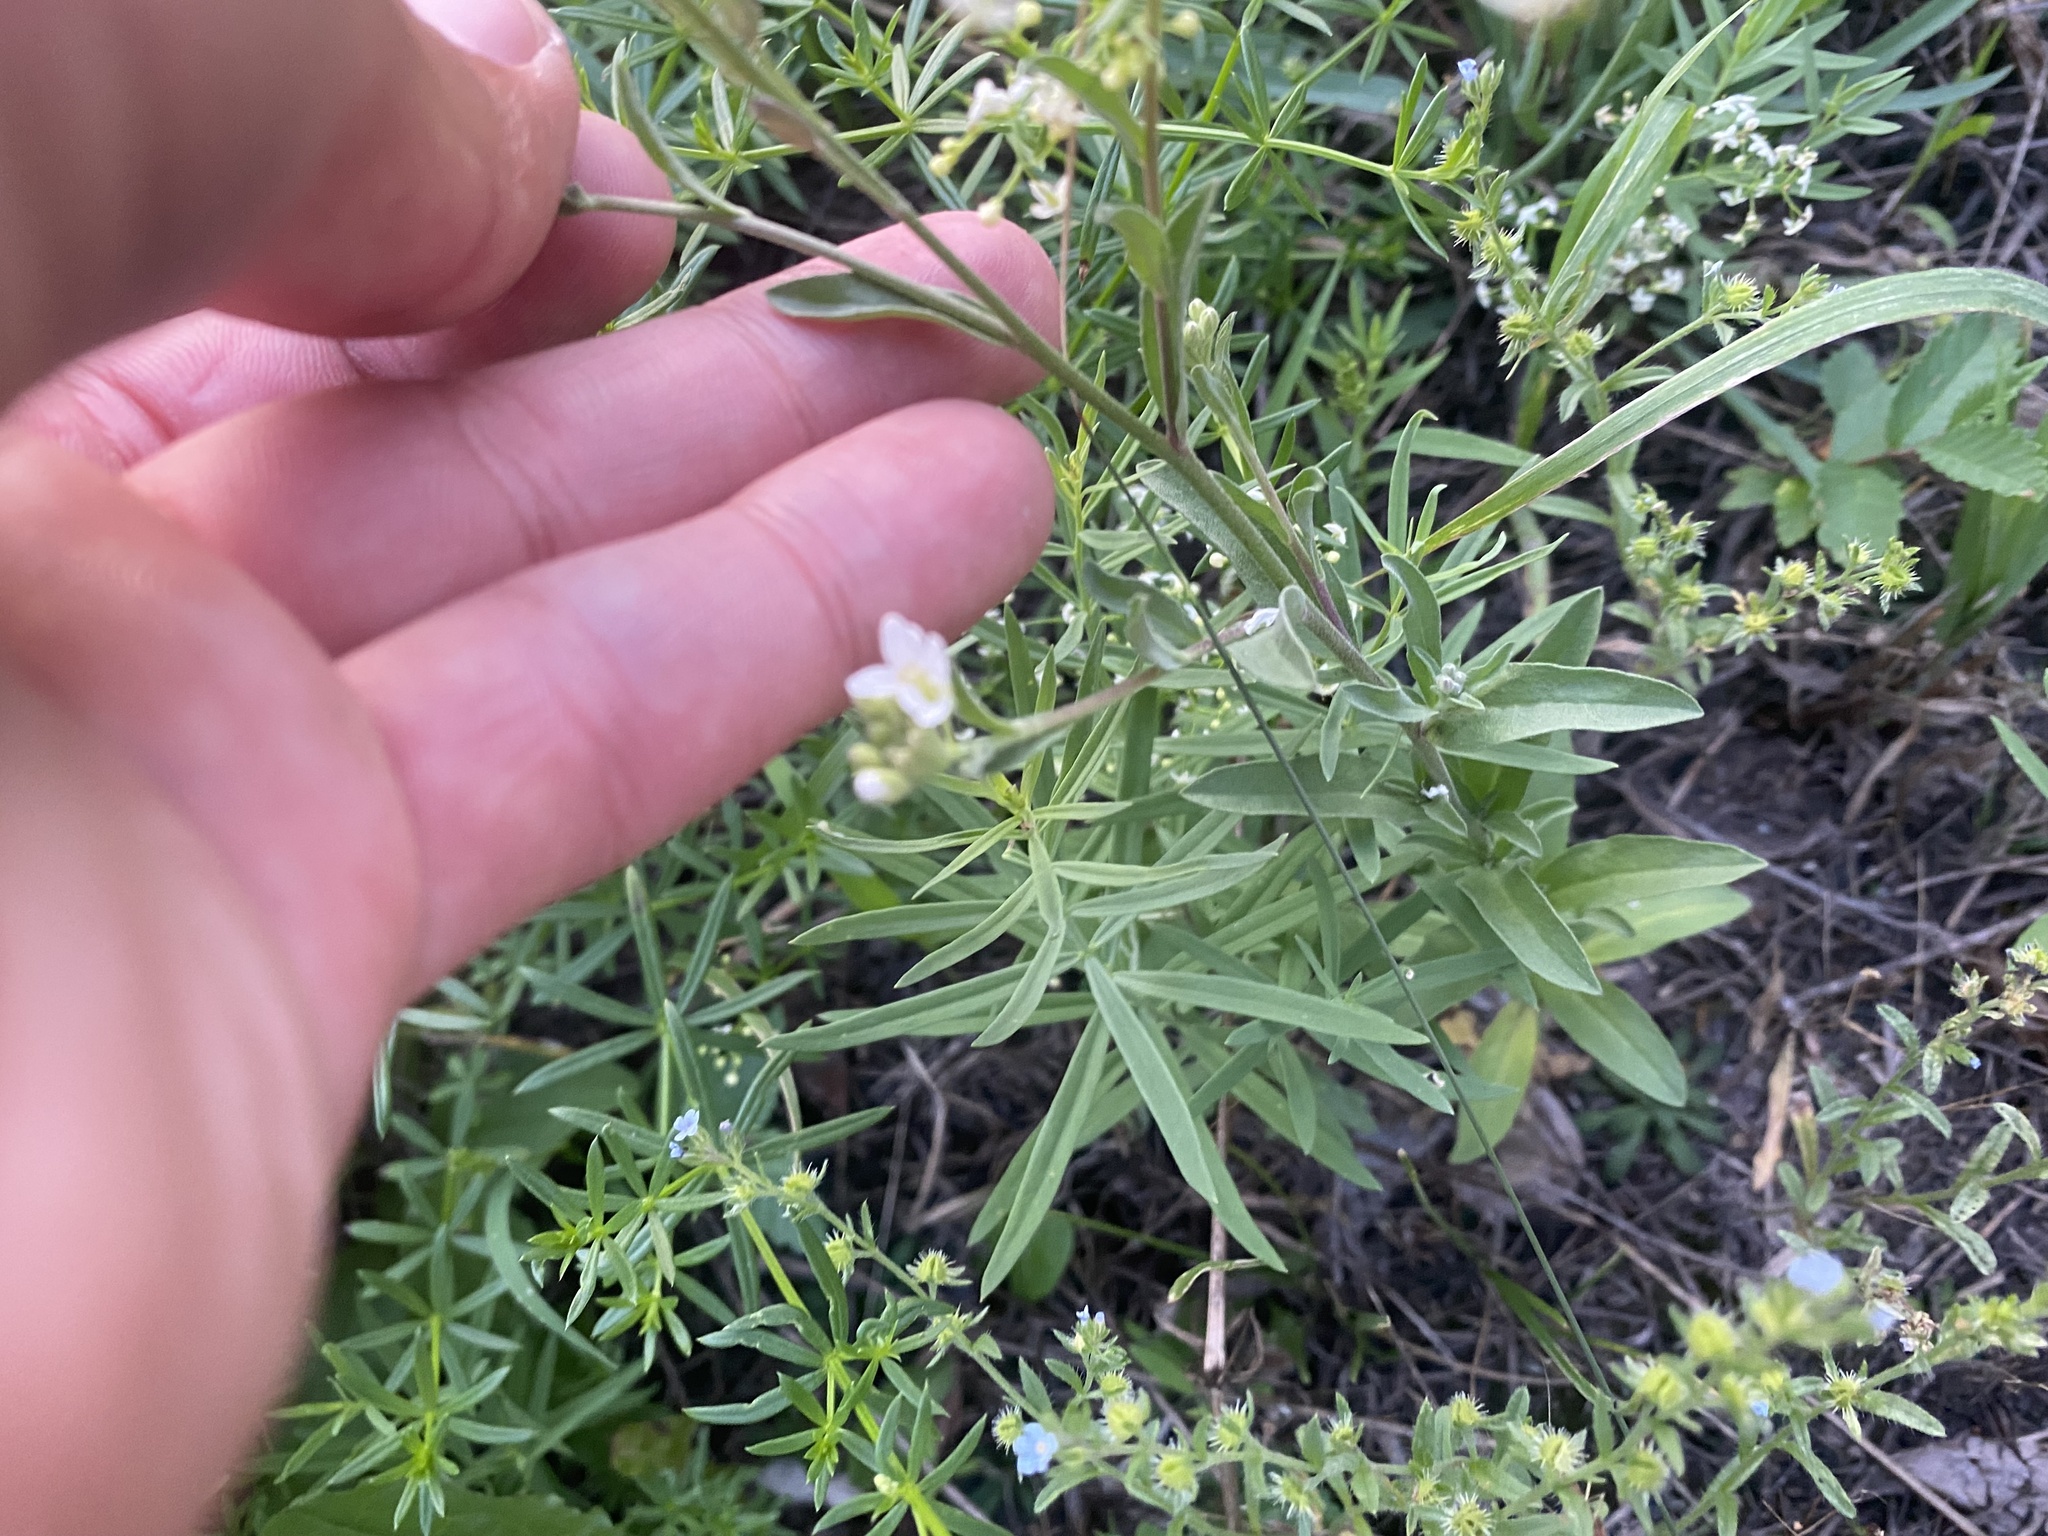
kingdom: Plantae
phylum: Tracheophyta
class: Magnoliopsida
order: Brassicales
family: Brassicaceae
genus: Berteroa
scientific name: Berteroa incana
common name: Hoary alison
